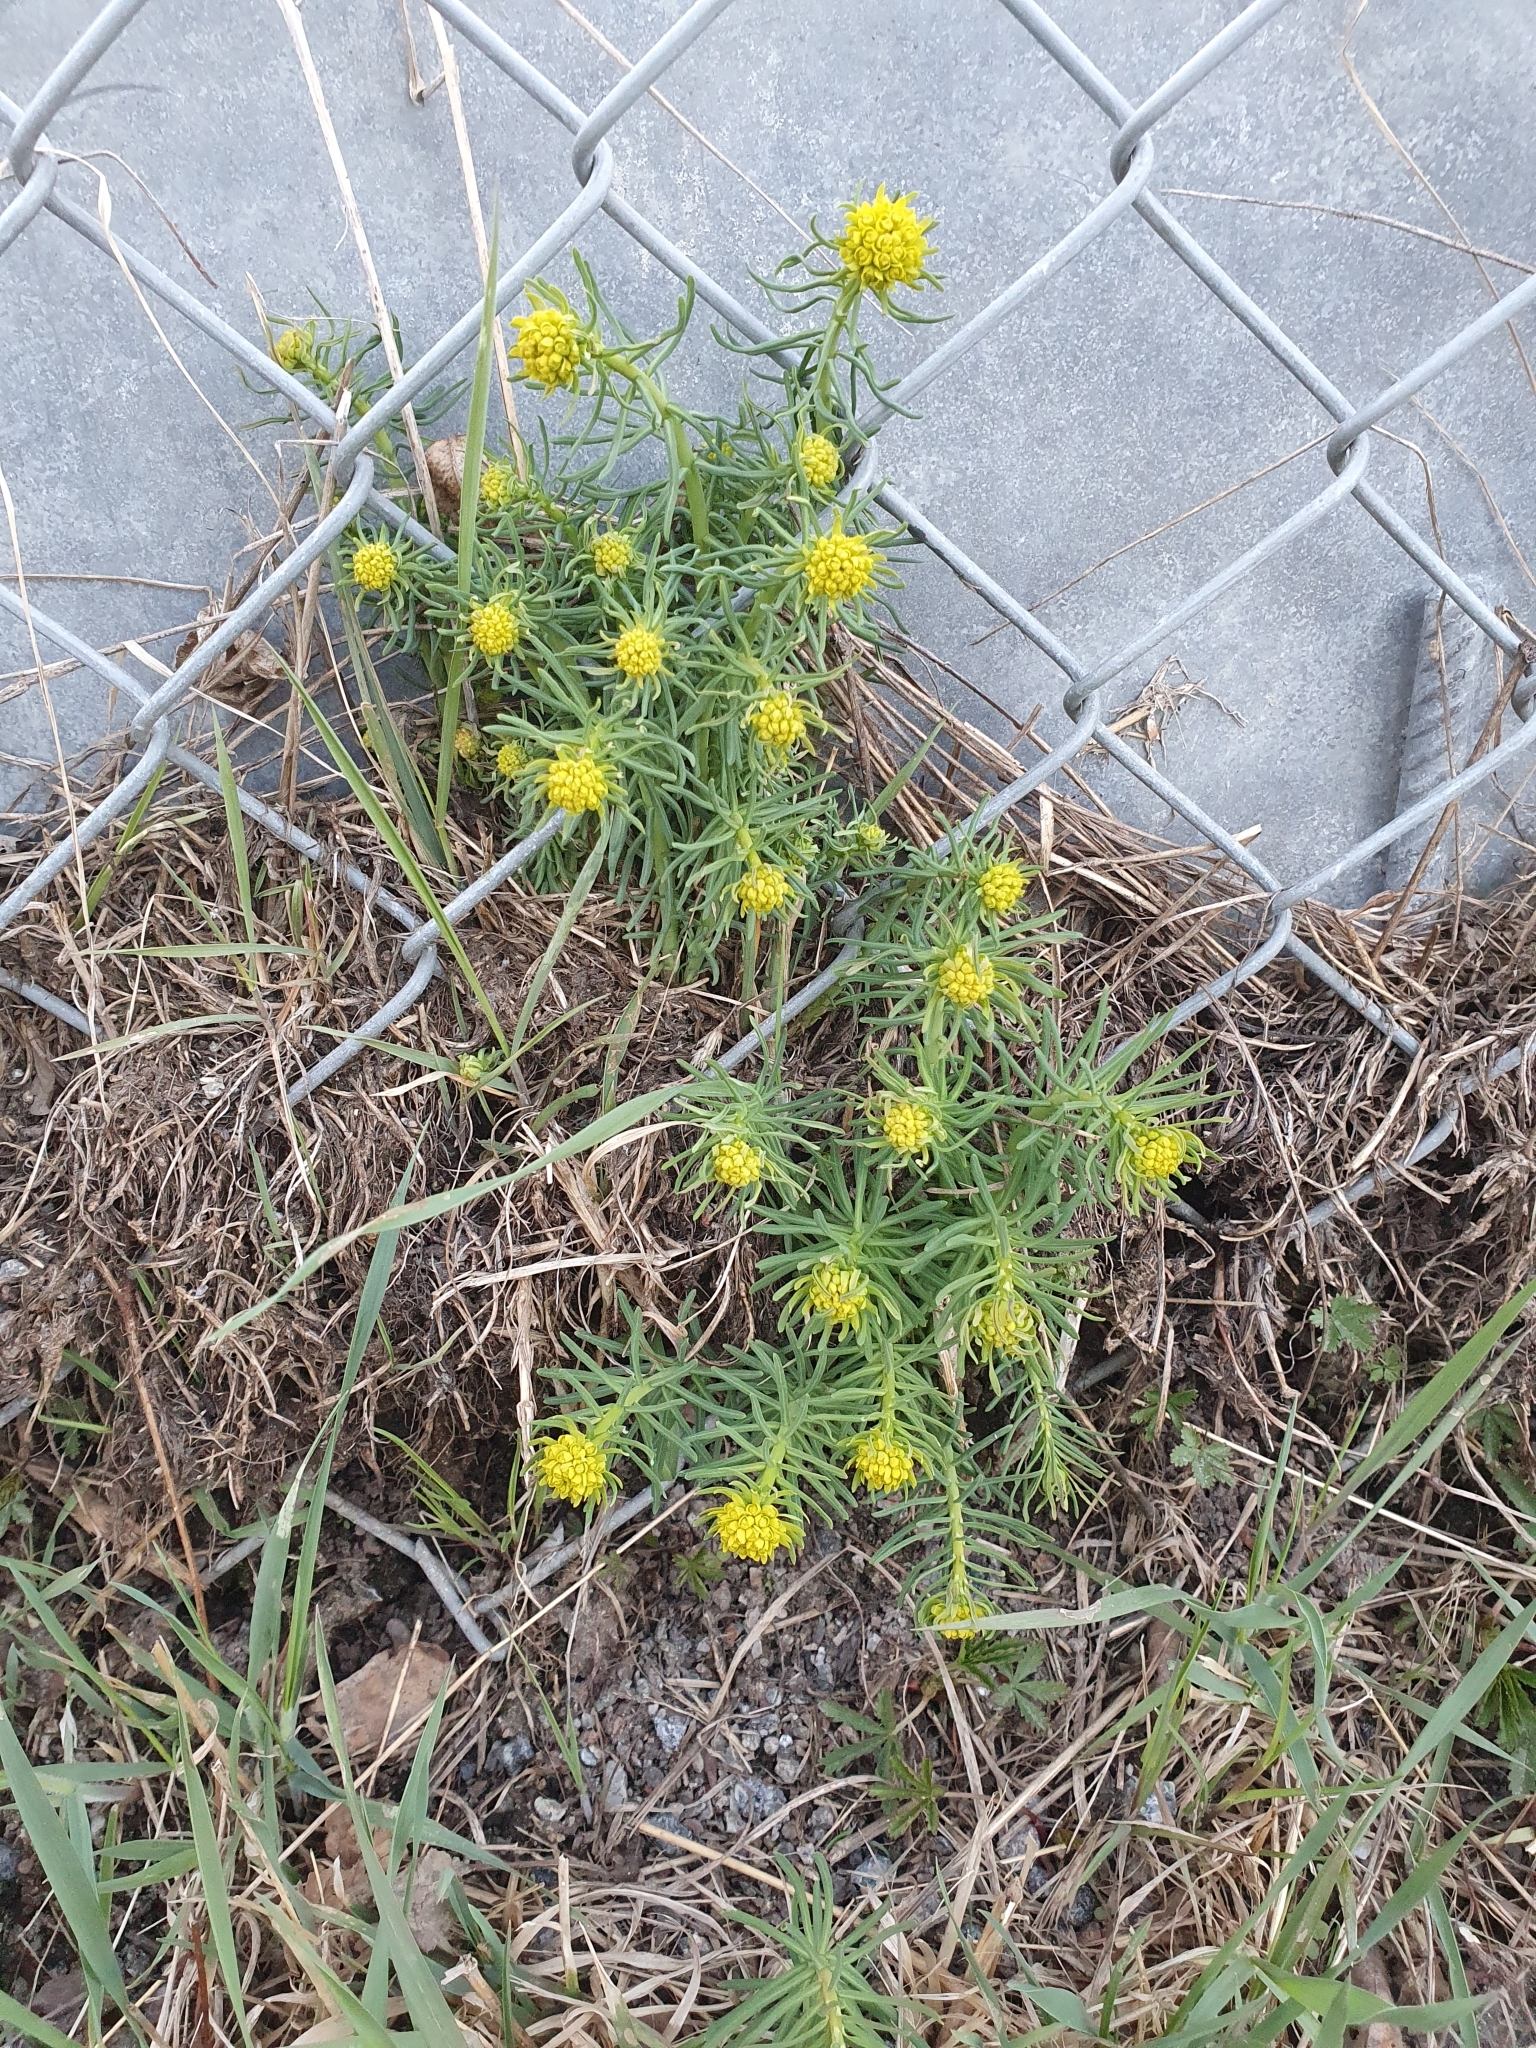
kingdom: Plantae
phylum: Tracheophyta
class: Magnoliopsida
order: Malpighiales
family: Euphorbiaceae
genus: Euphorbia
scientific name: Euphorbia cyparissias
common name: Cypress spurge
